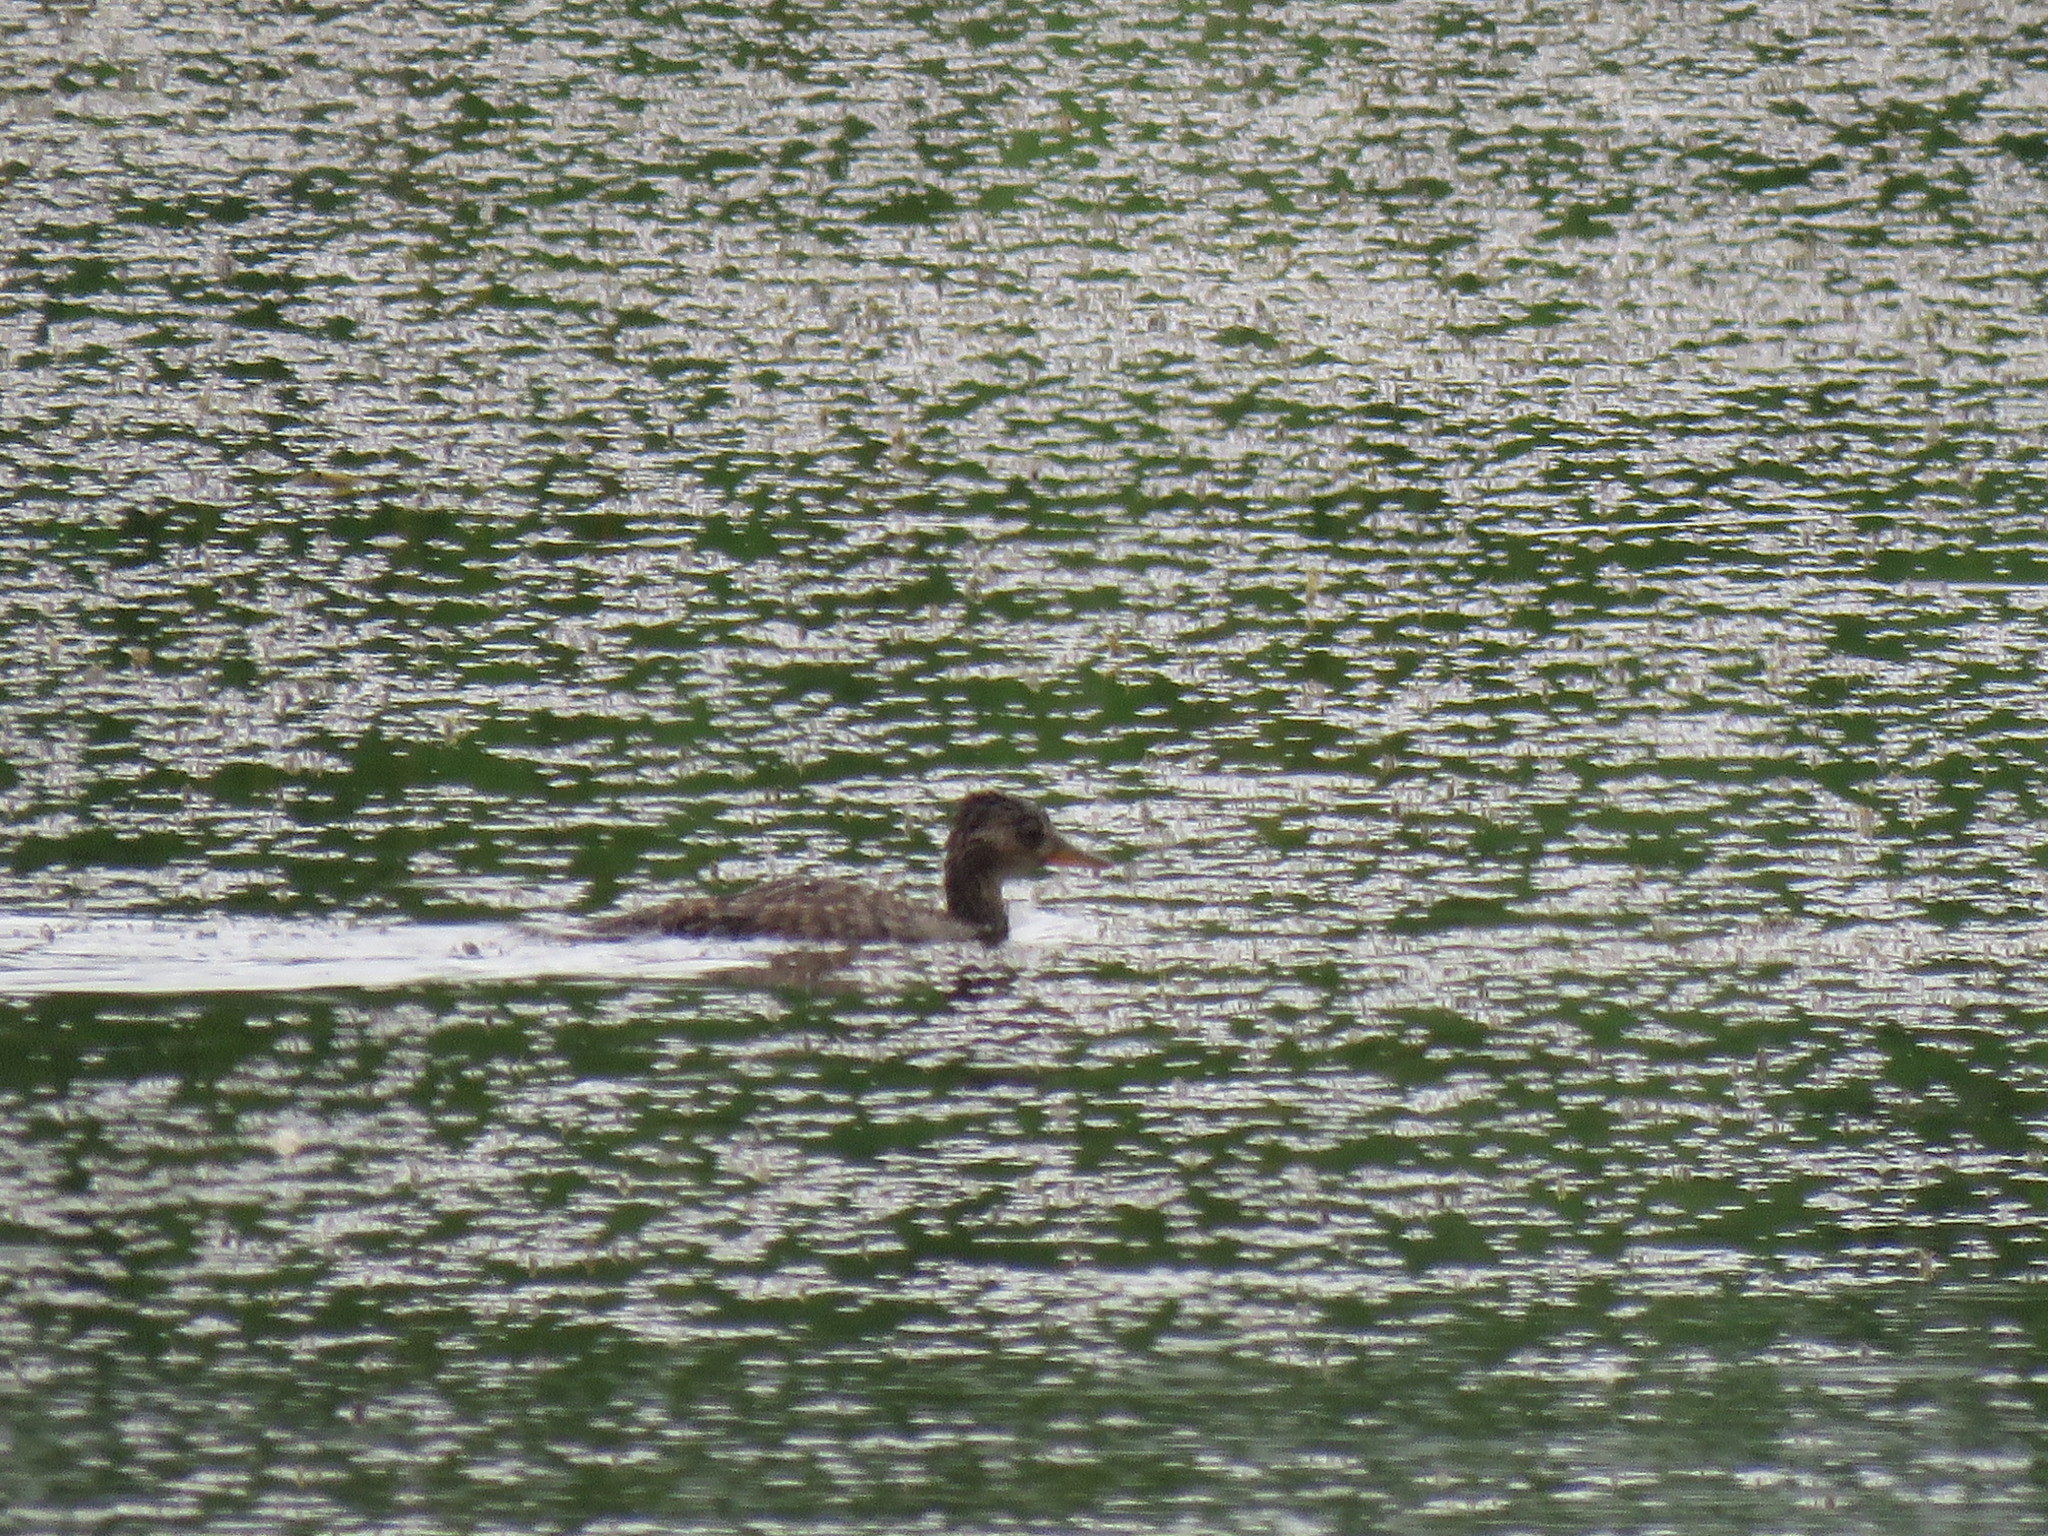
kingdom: Animalia
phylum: Chordata
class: Aves
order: Anseriformes
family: Anatidae
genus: Lophodytes
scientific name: Lophodytes cucullatus
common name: Hooded merganser
